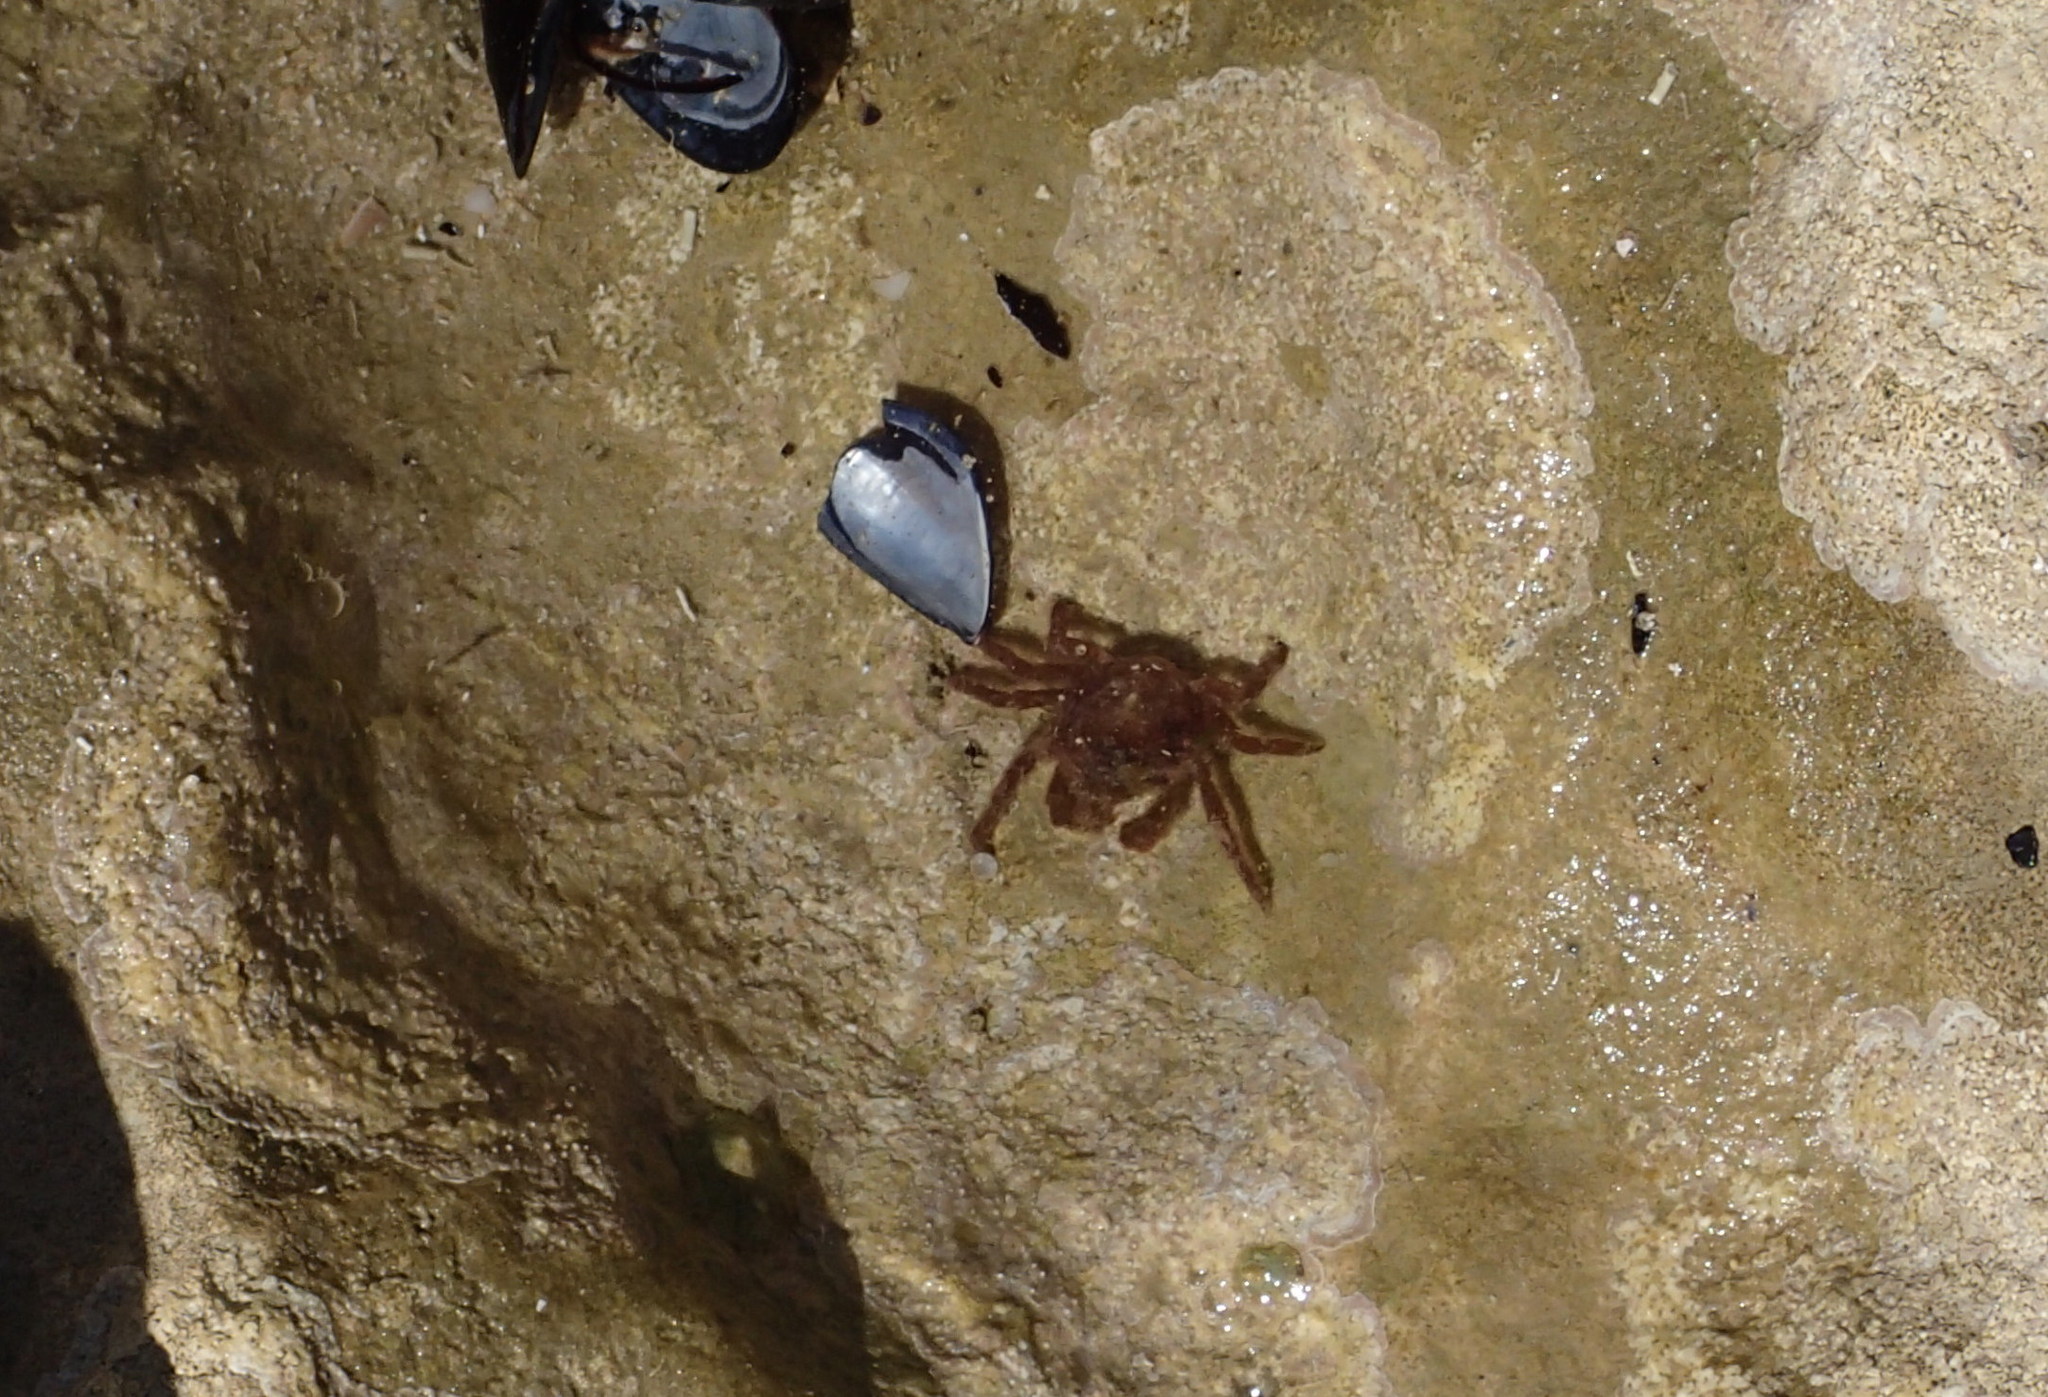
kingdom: Animalia
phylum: Arthropoda
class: Malacostraca
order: Decapoda
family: Epialtidae
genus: Acanthonyx
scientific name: Acanthonyx lunulatus
